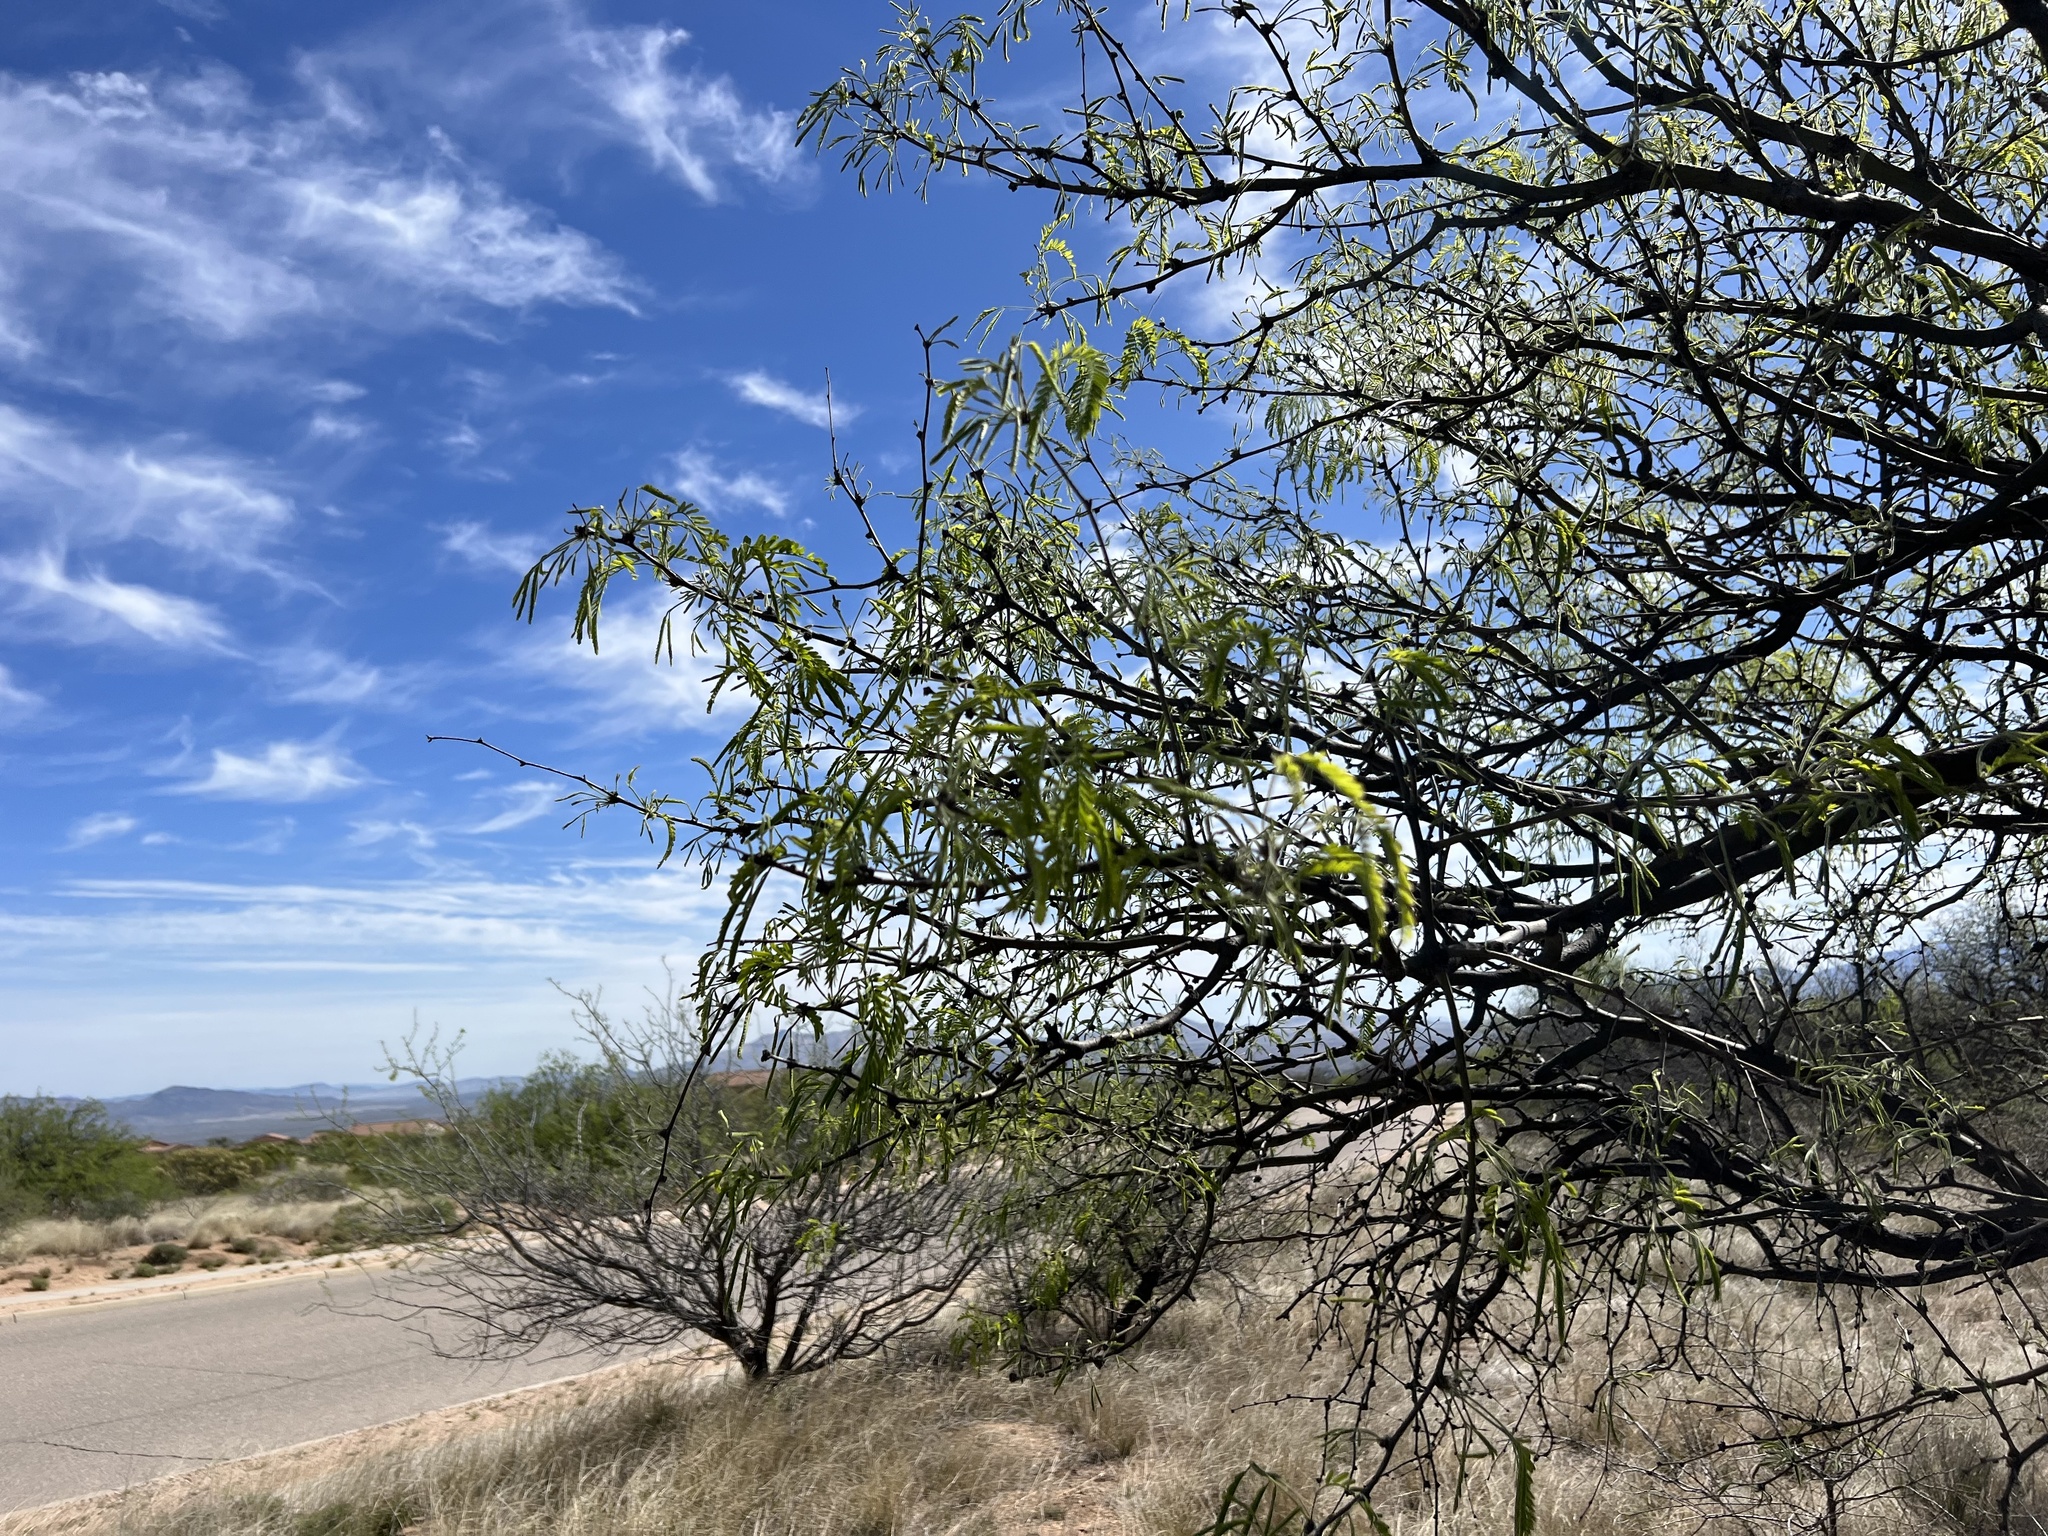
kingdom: Plantae
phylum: Tracheophyta
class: Magnoliopsida
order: Fabales
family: Fabaceae
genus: Prosopis
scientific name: Prosopis velutina
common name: Velvet mesquite
